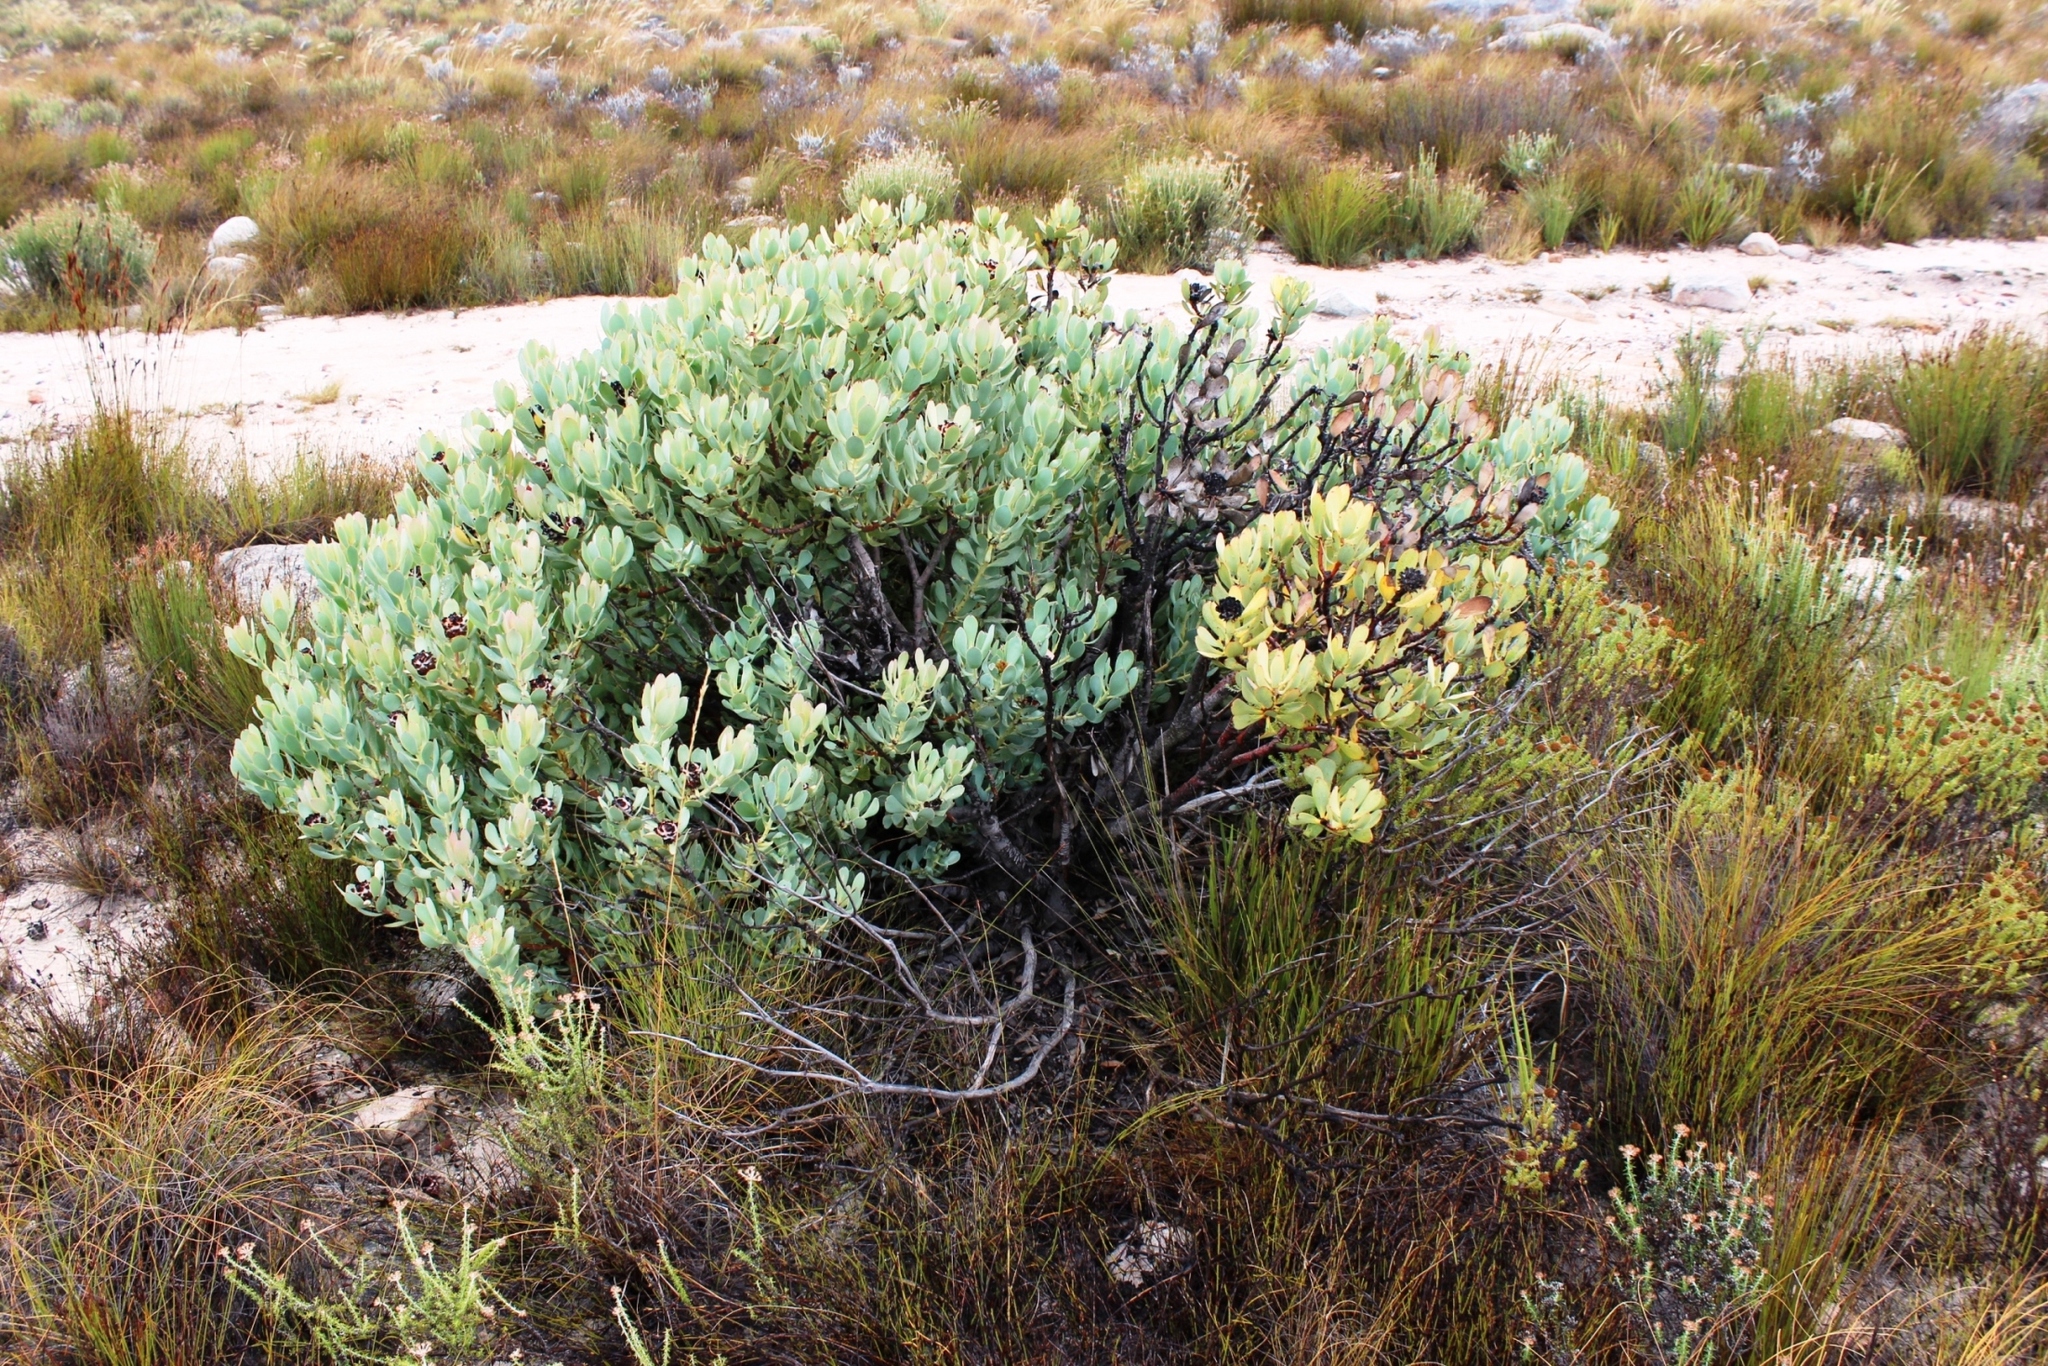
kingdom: Plantae
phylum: Tracheophyta
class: Magnoliopsida
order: Proteales
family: Proteaceae
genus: Leucadendron
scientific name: Leucadendron arcuatum
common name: Red-edge conebush
